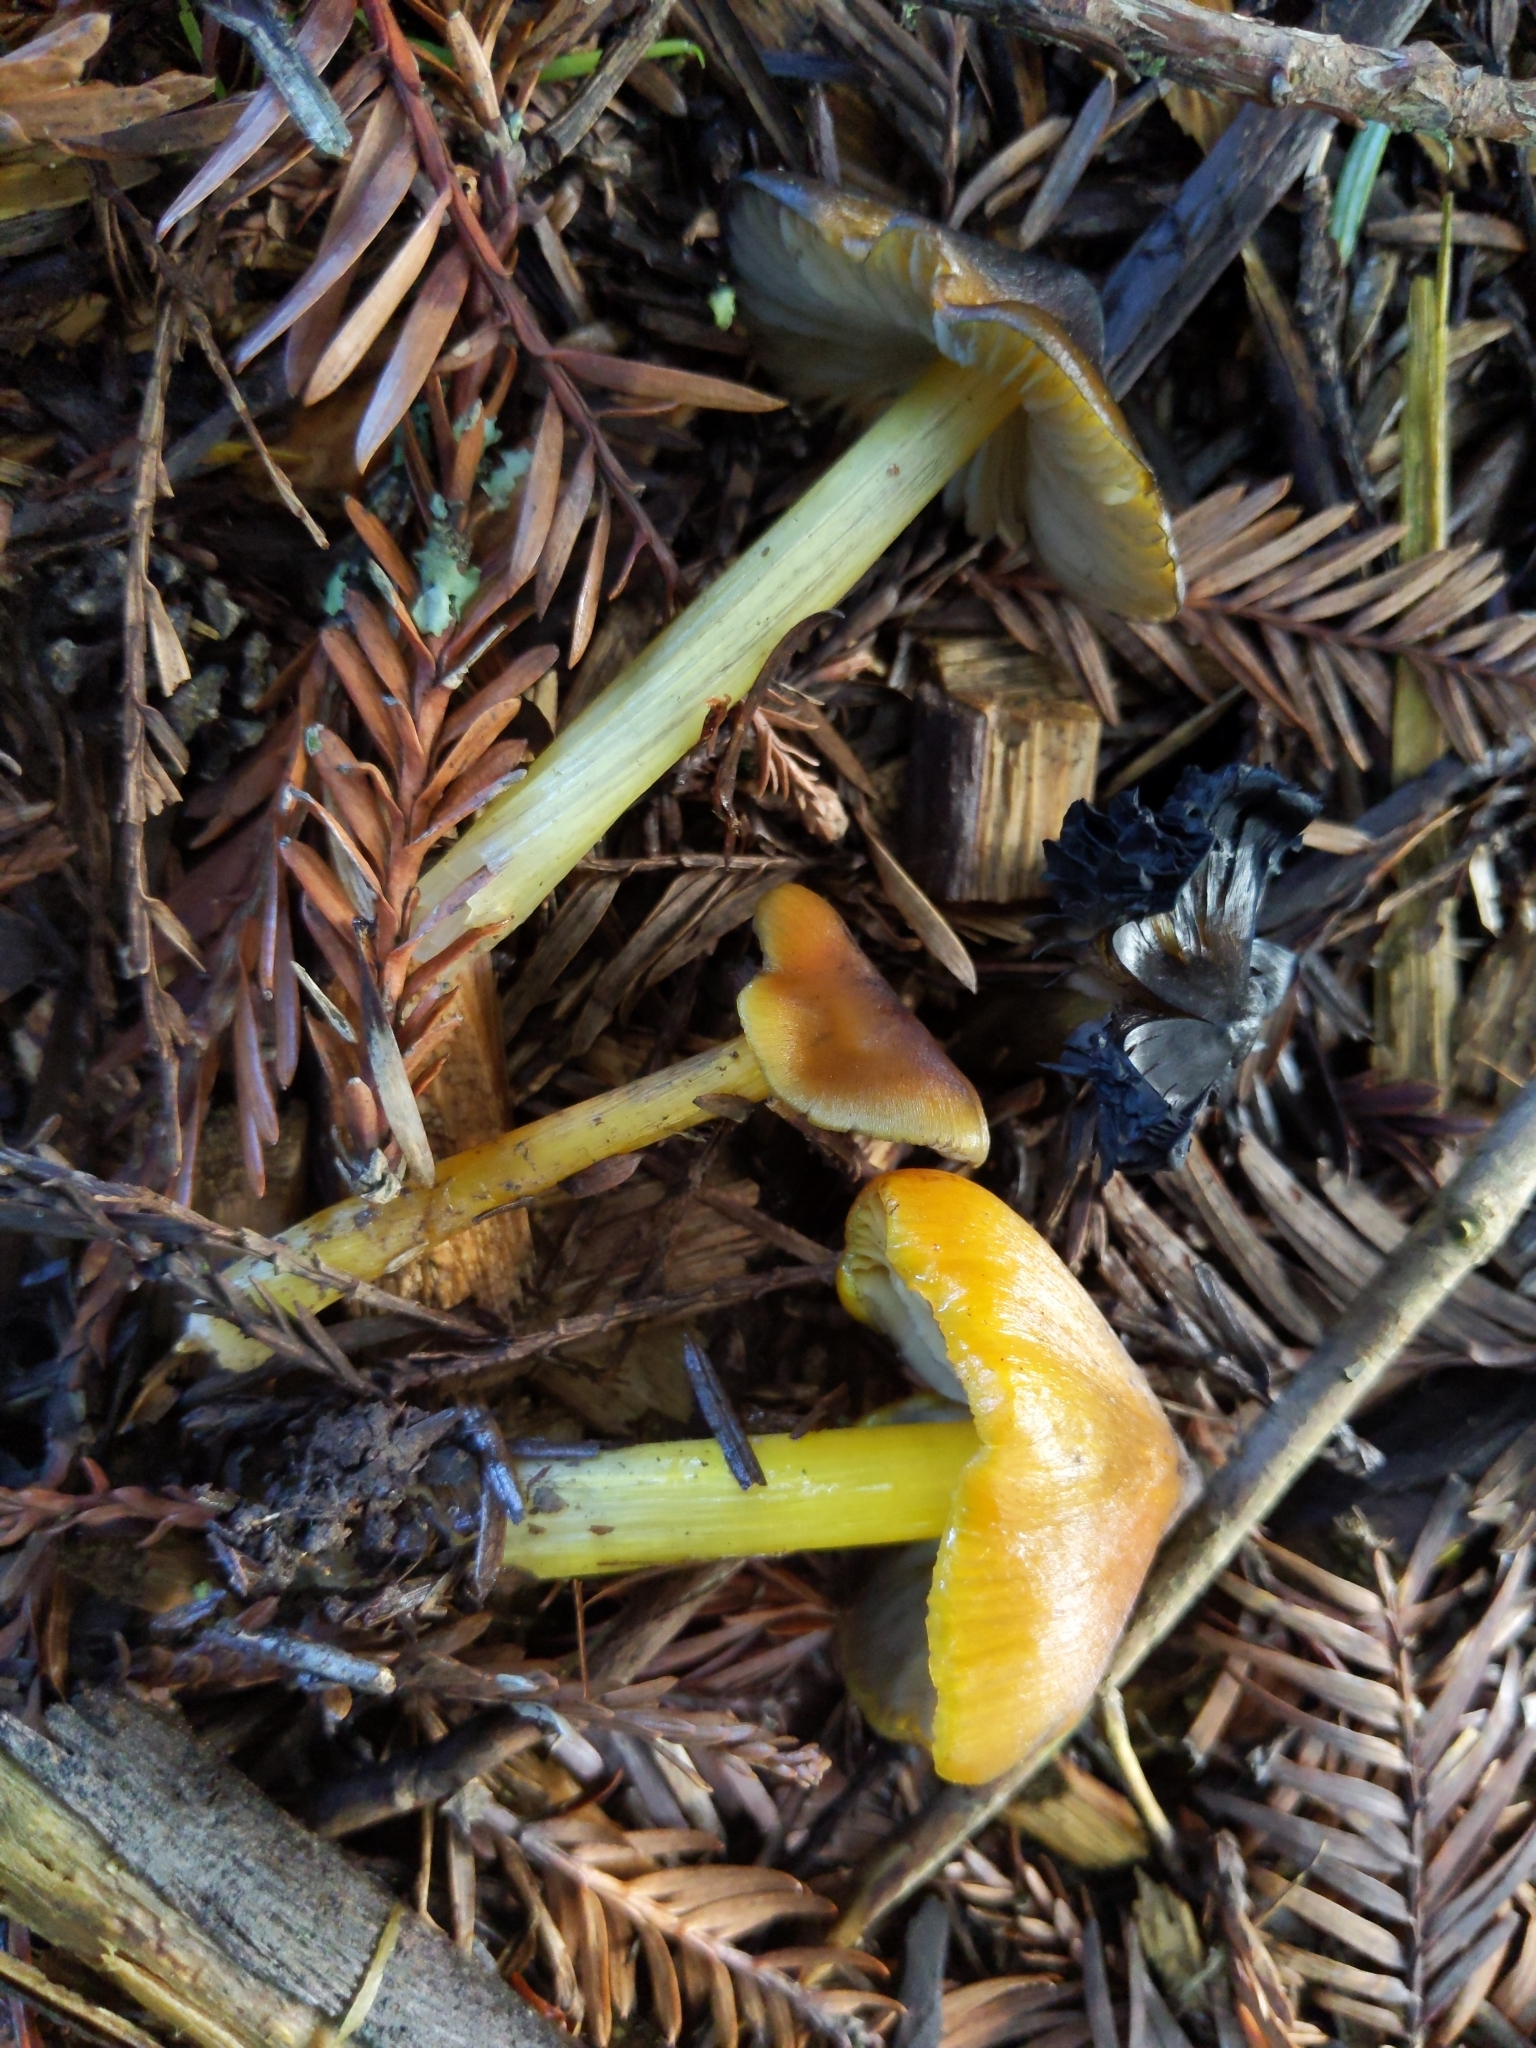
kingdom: Fungi
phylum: Basidiomycota
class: Agaricomycetes
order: Agaricales
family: Hygrophoraceae
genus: Hygrocybe
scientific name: Hygrocybe singeri
